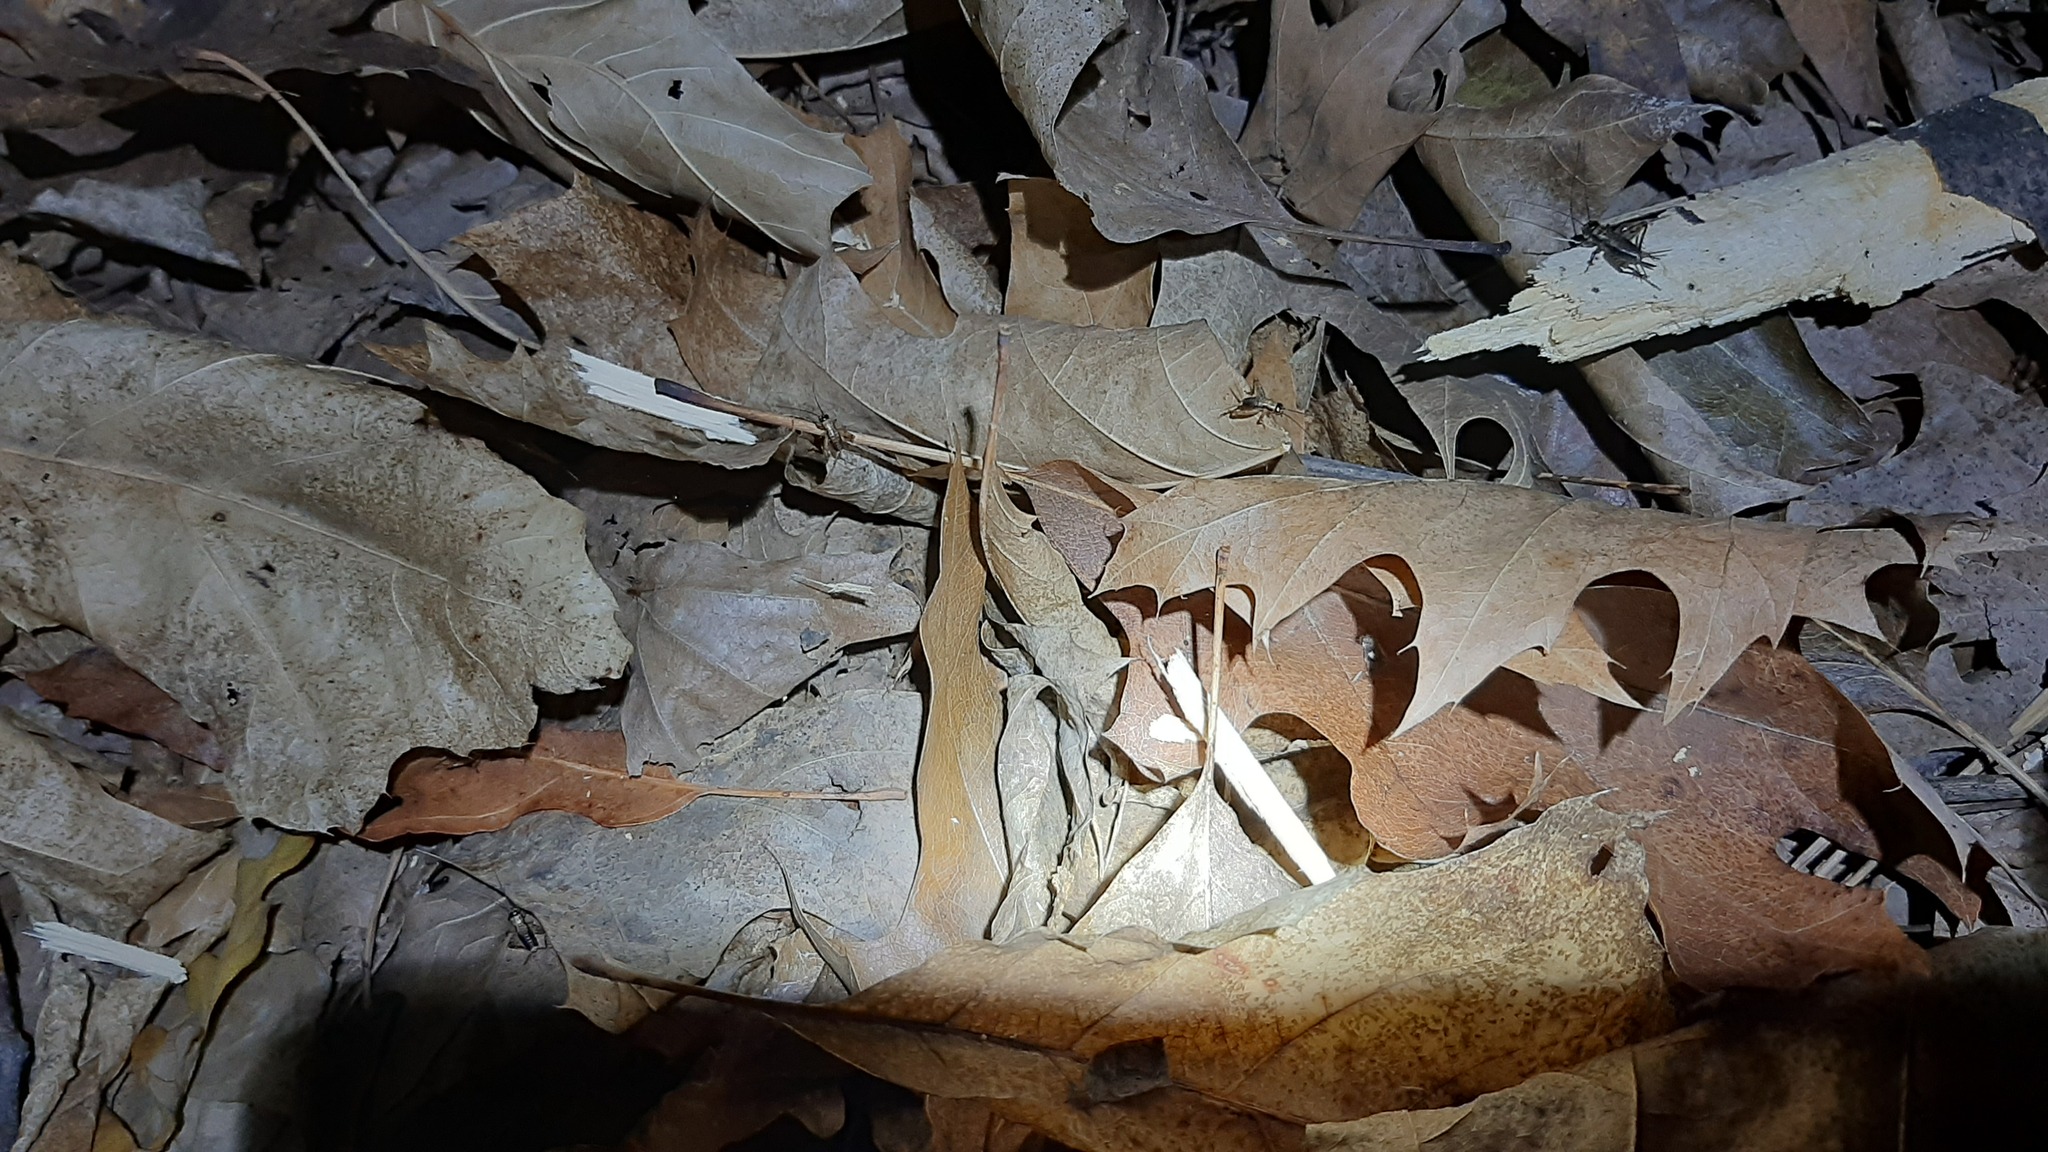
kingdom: Animalia
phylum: Arthropoda
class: Insecta
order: Orthoptera
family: Trigonidiidae
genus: Nemobius
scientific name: Nemobius sylvestris
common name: Wood-cricket
